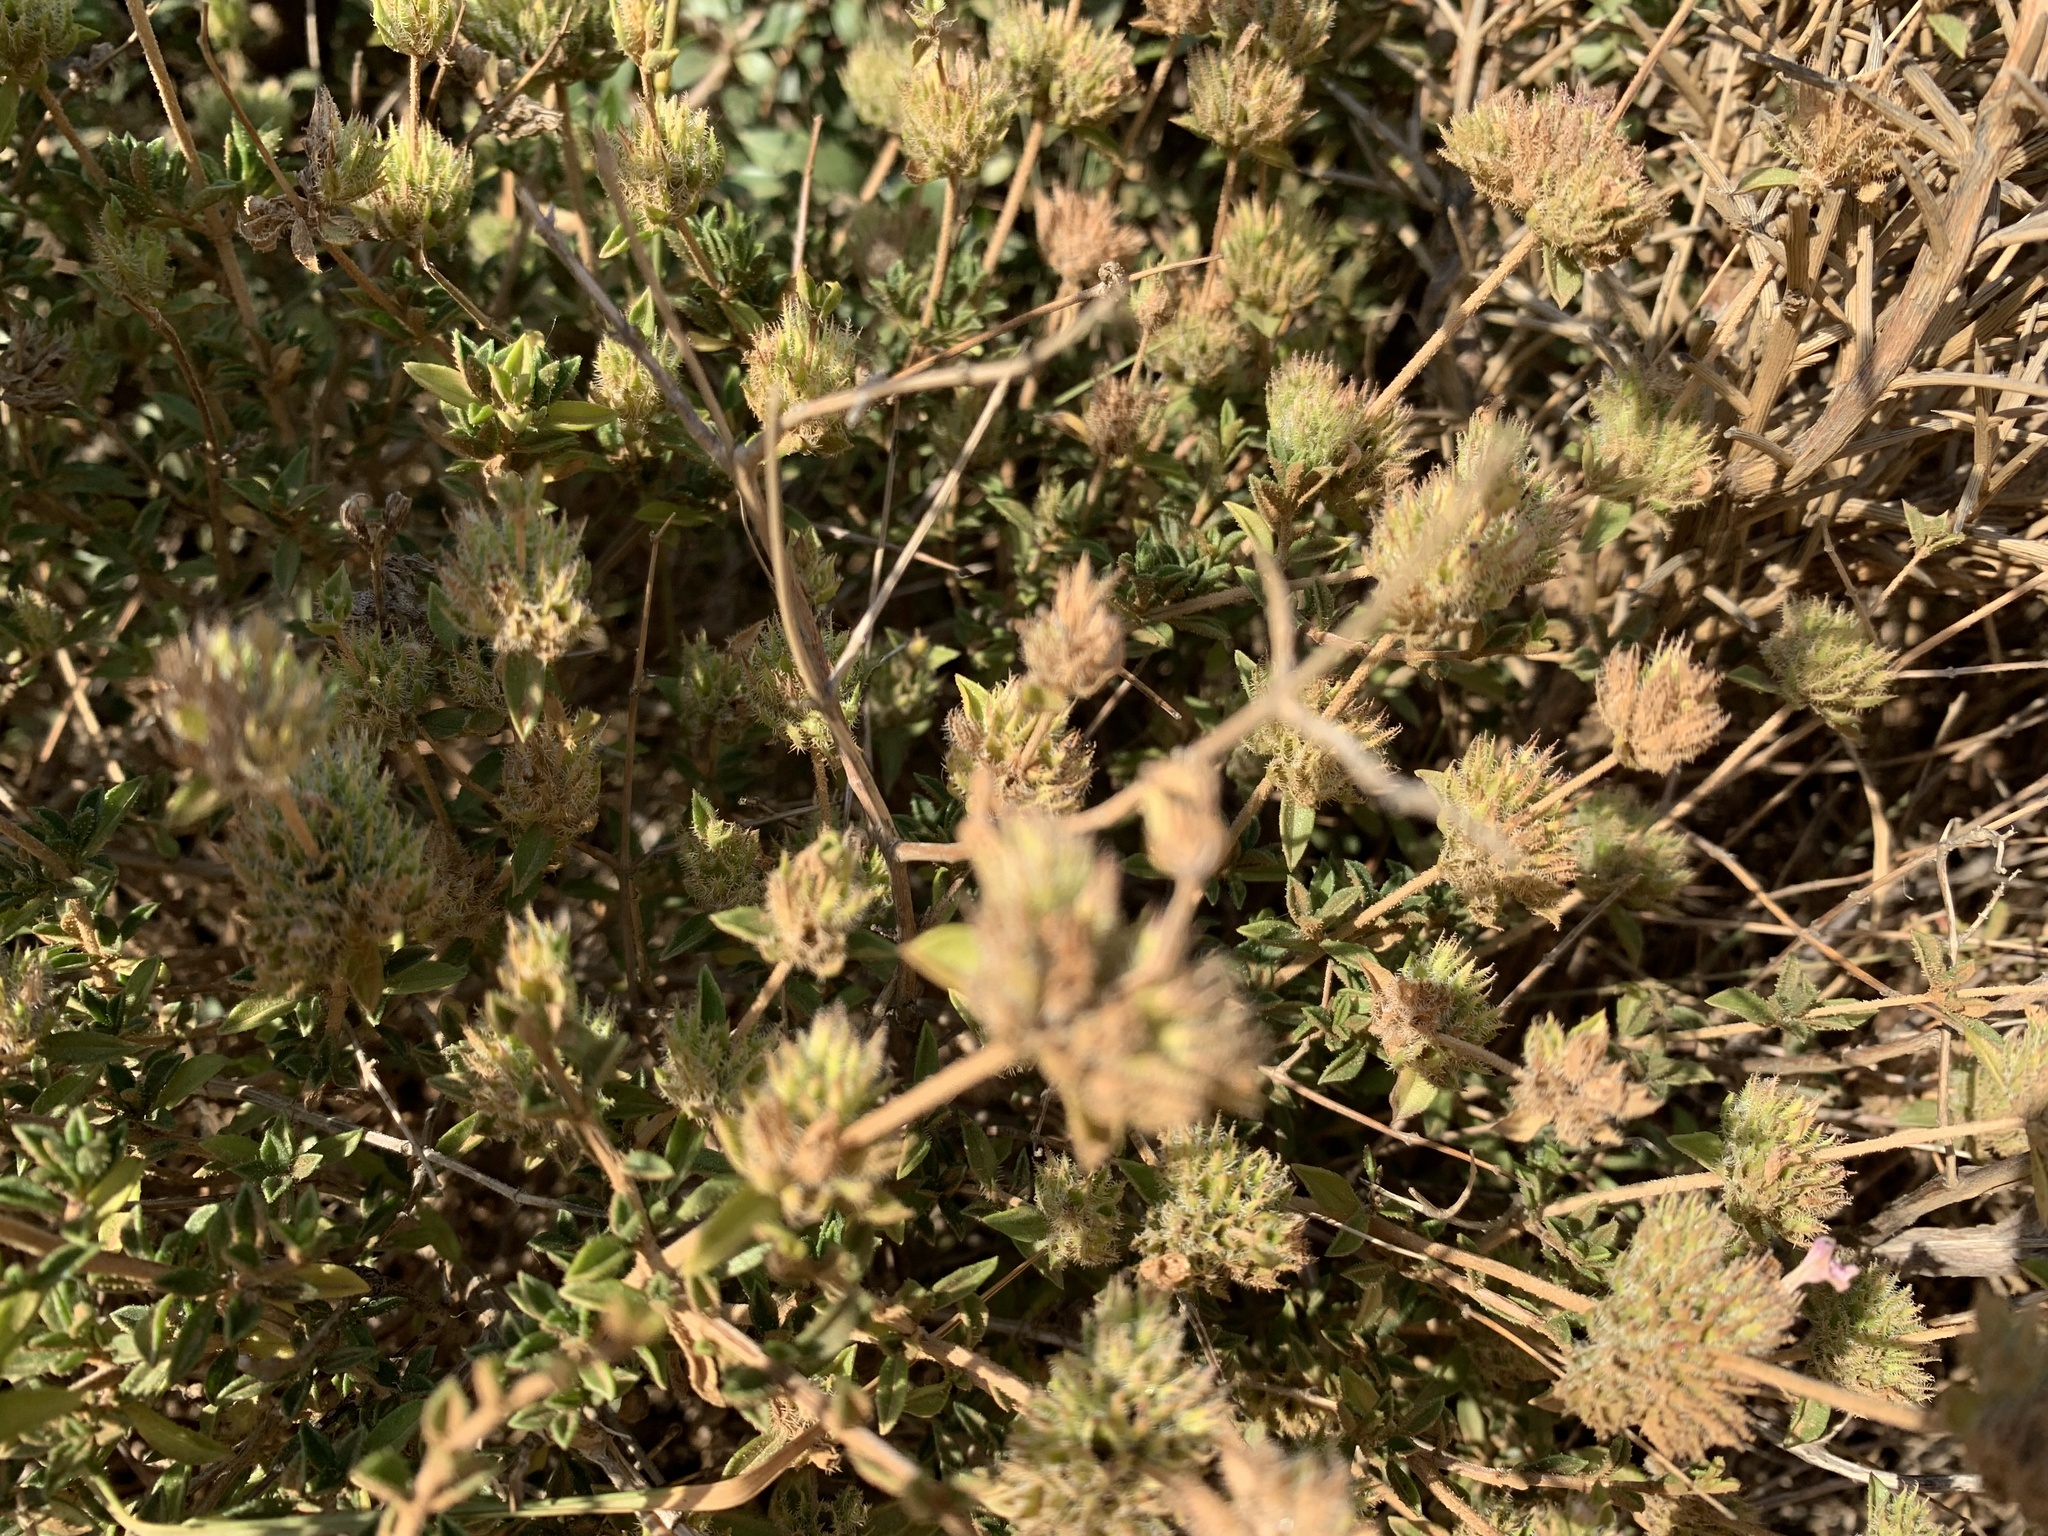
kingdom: Plantae
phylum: Tracheophyta
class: Magnoliopsida
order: Lamiales
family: Lamiaceae
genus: Thymbra
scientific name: Thymbra capitata
